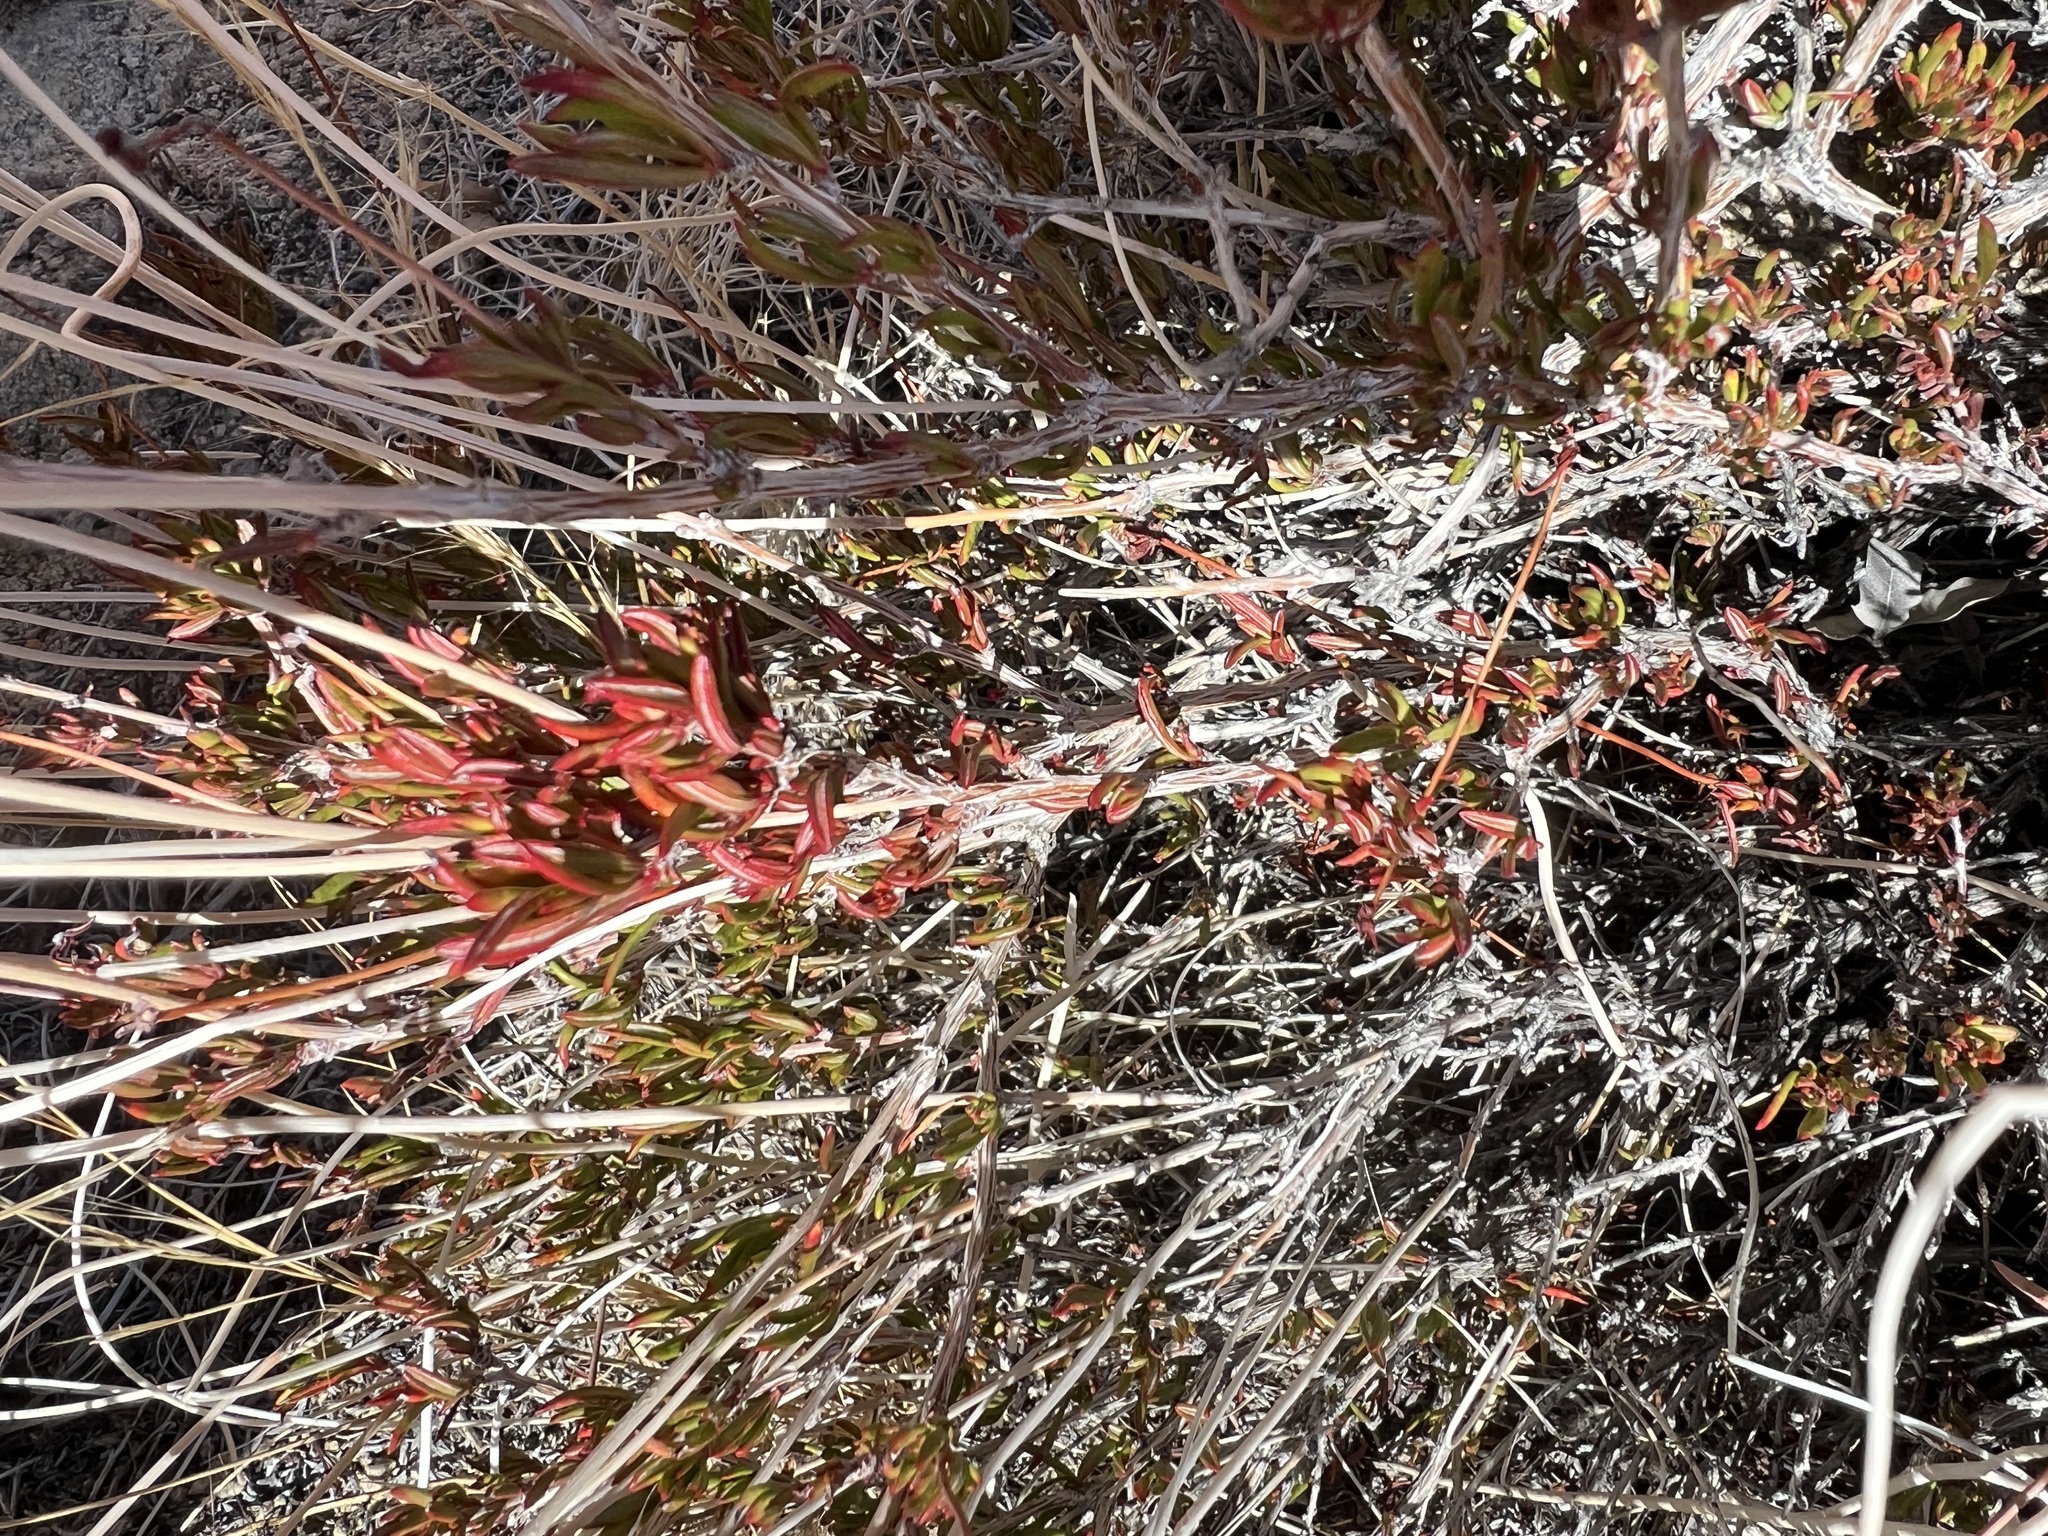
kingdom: Plantae
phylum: Tracheophyta
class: Magnoliopsida
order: Caryophyllales
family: Polygonaceae
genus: Eriogonum
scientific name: Eriogonum fasciculatum
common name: California wild buckwheat
